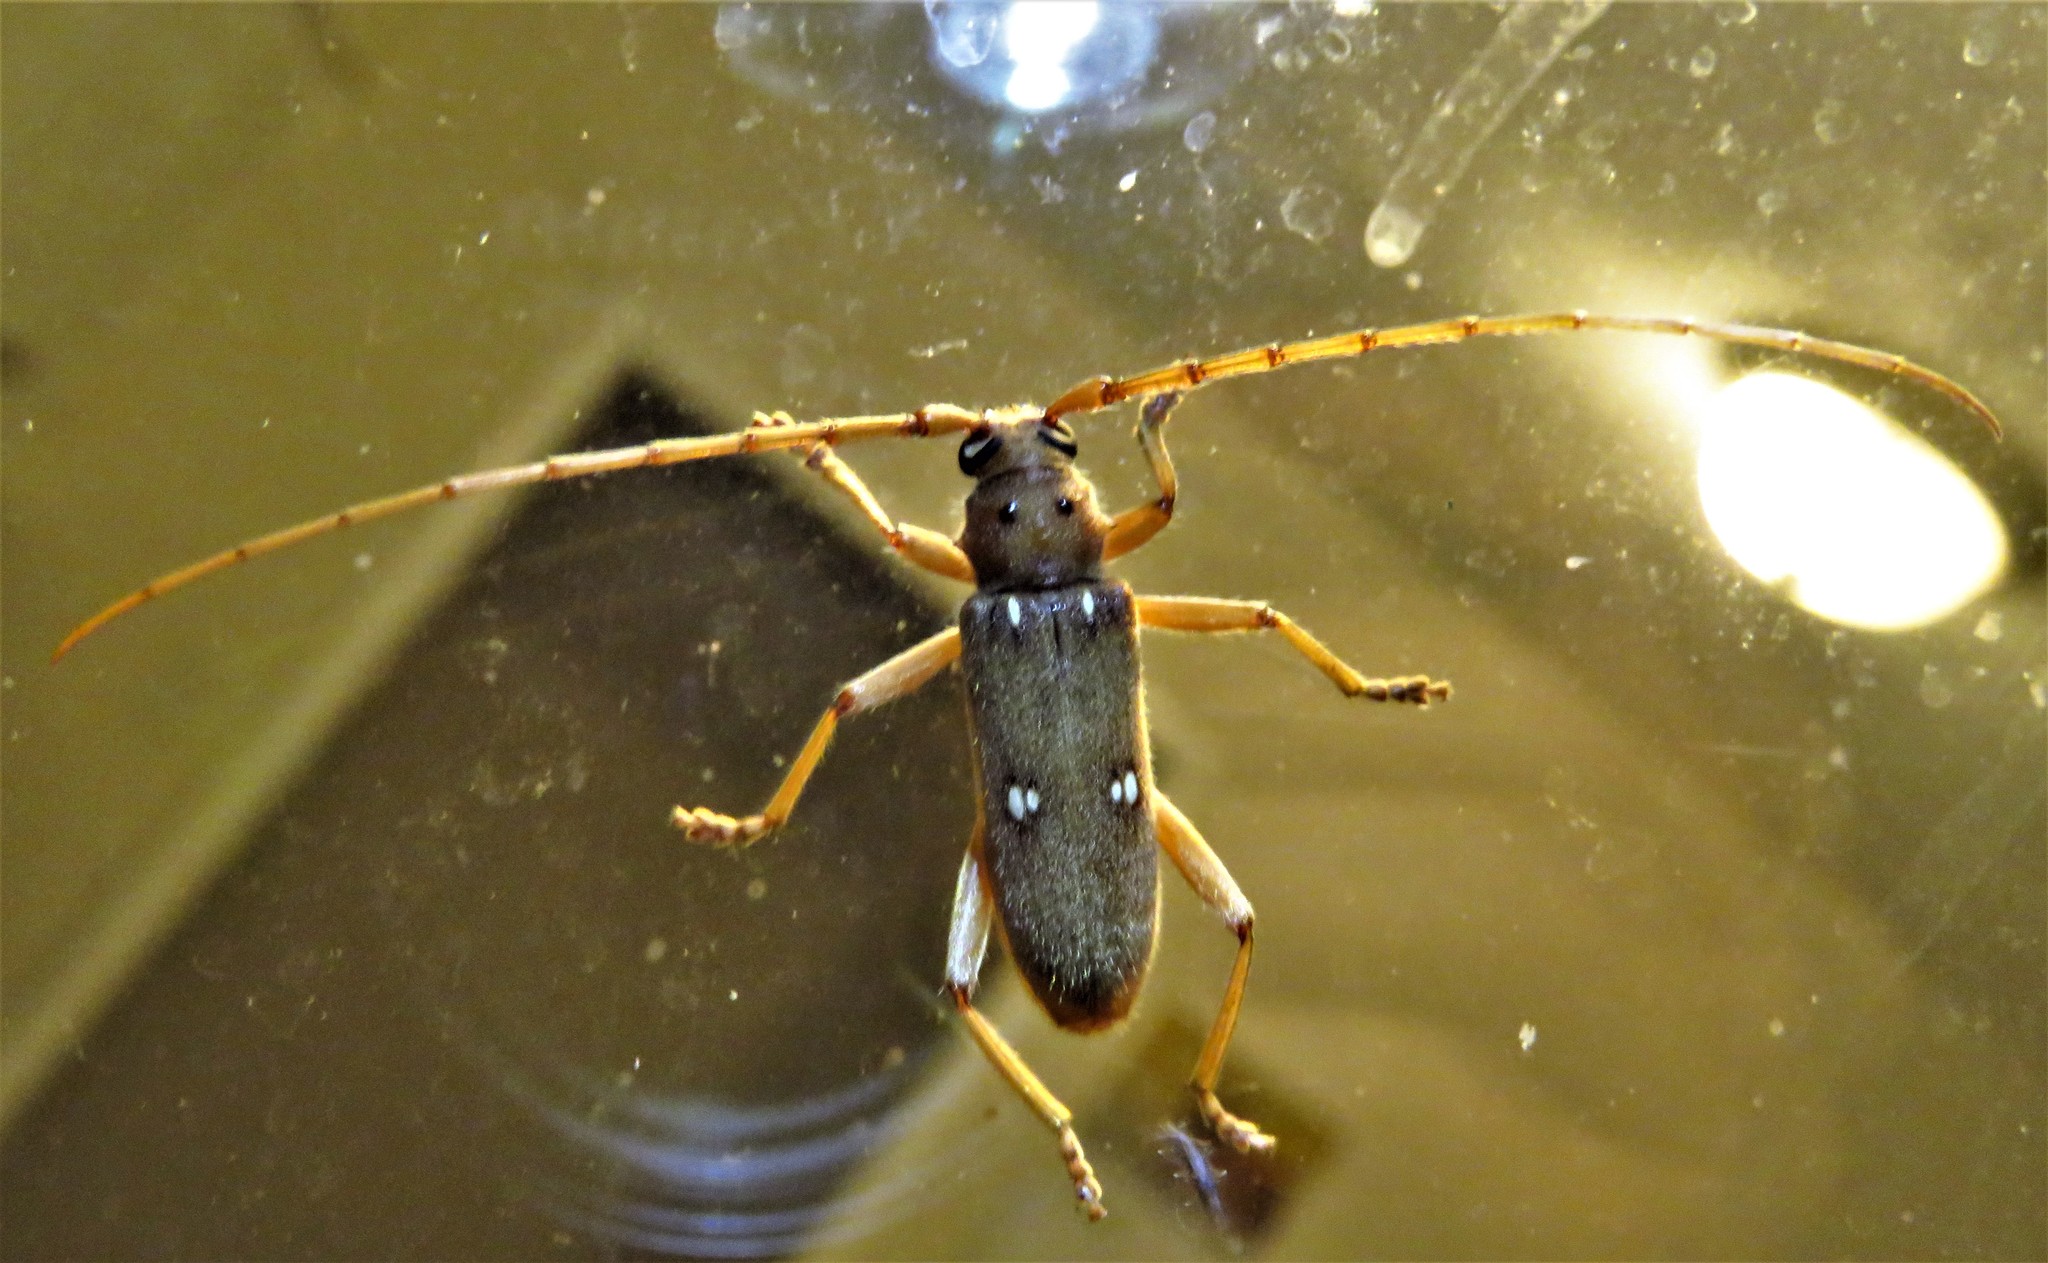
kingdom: Animalia
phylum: Arthropoda
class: Insecta
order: Coleoptera
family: Cerambycidae
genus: Eburia
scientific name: Eburia haldemani
